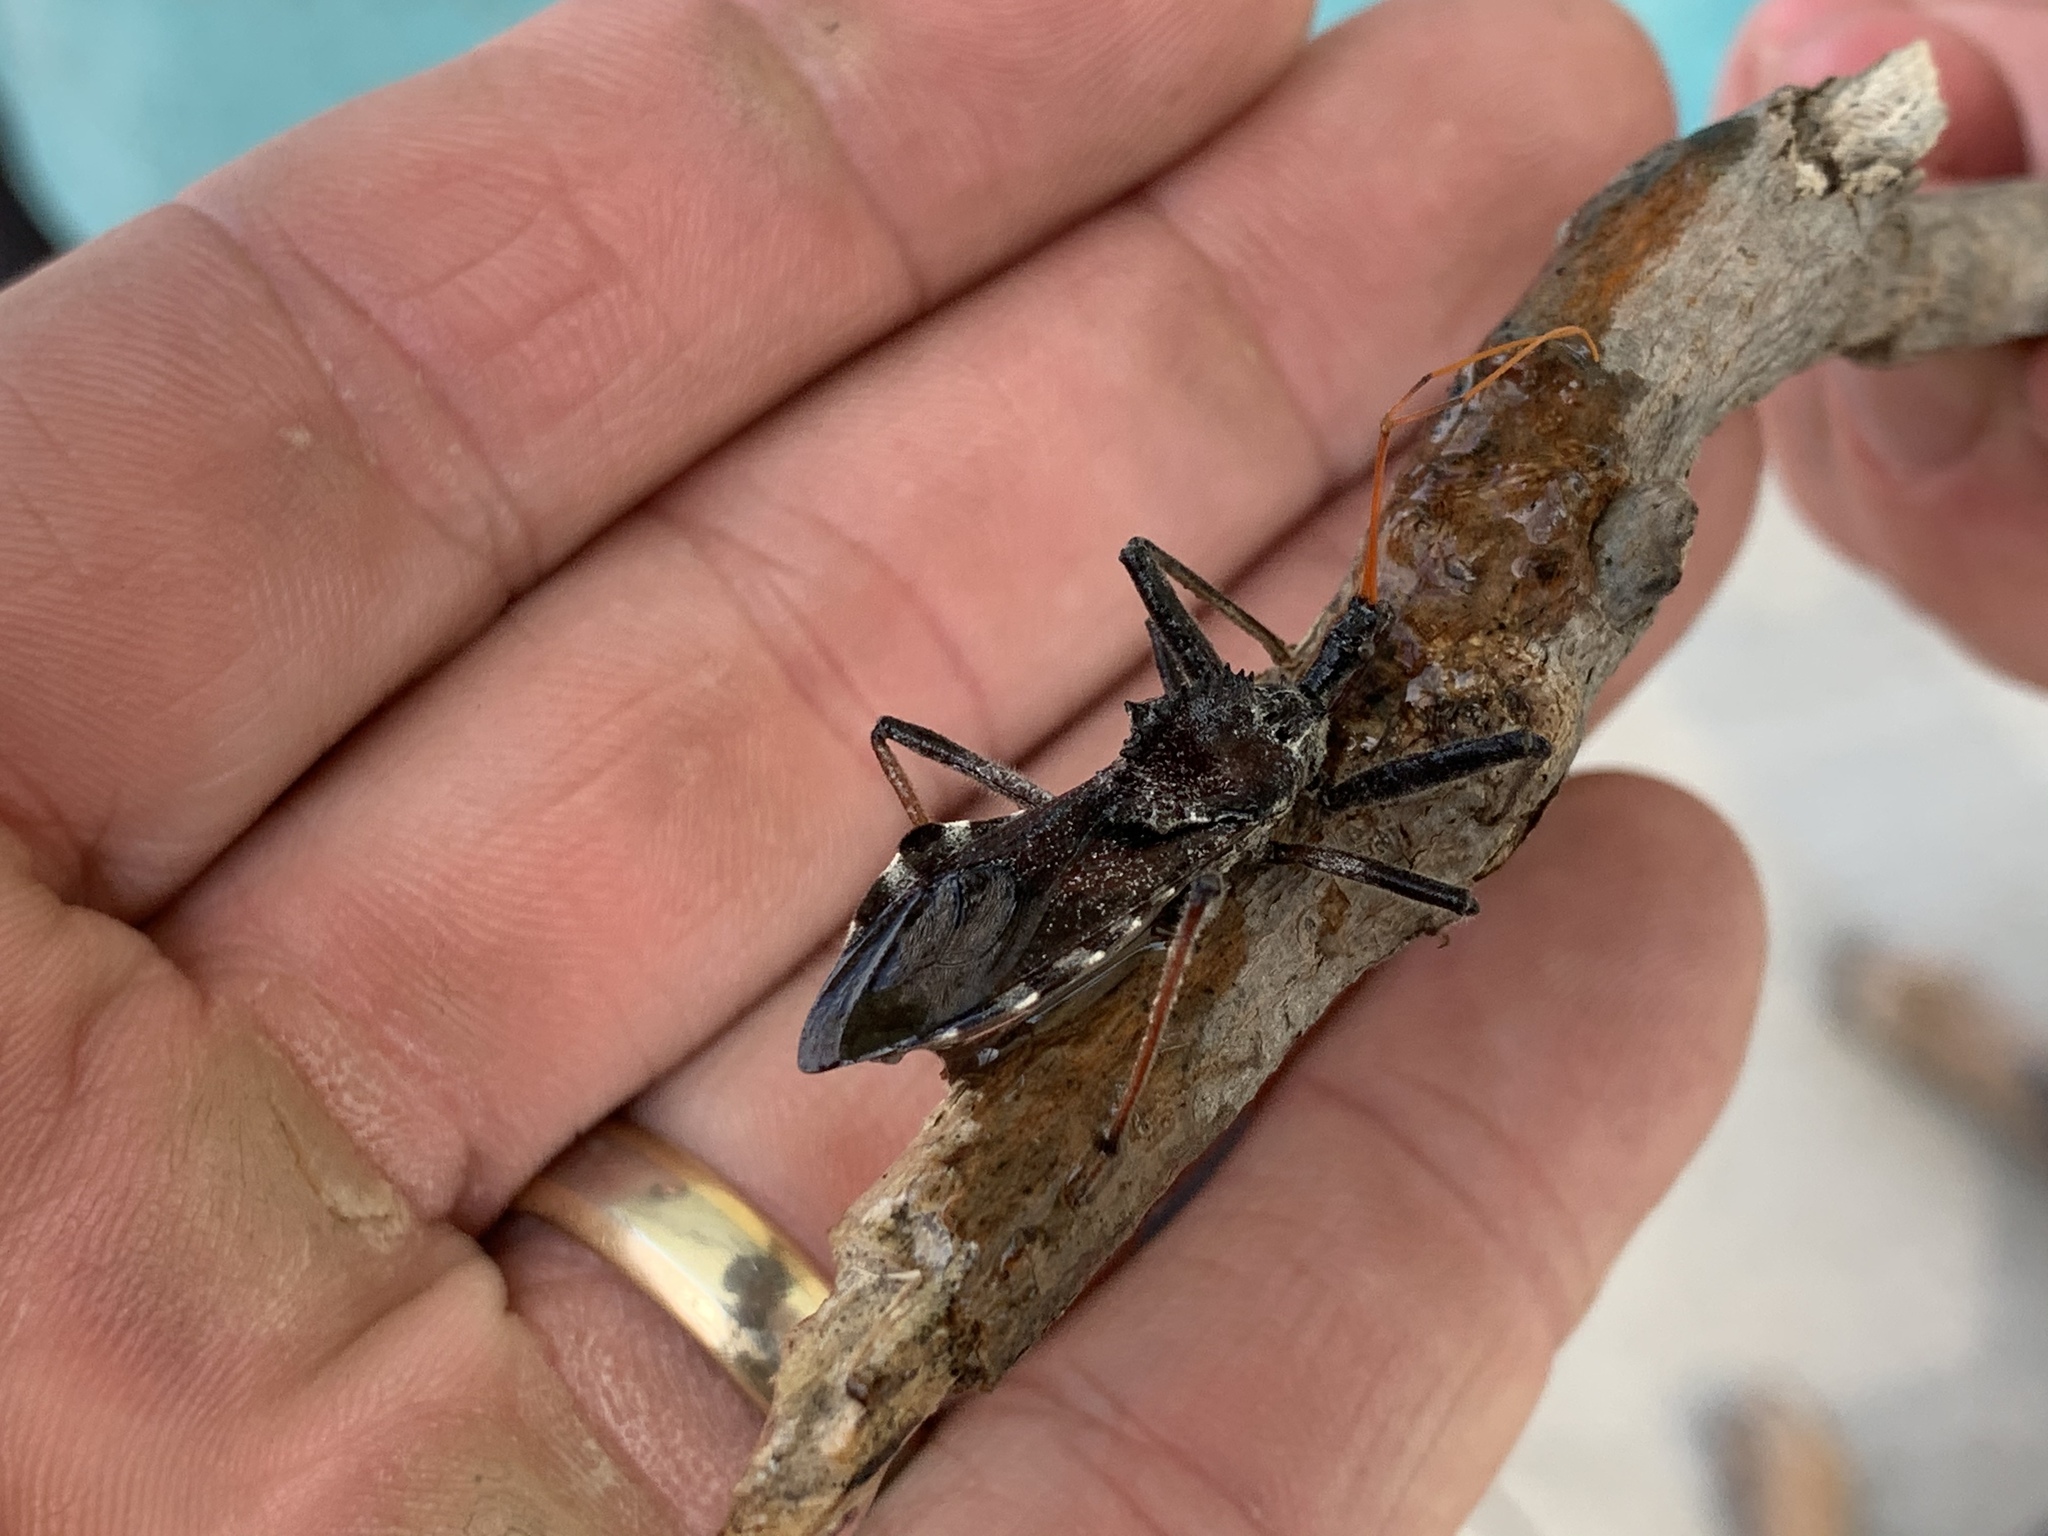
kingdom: Animalia
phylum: Arthropoda
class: Insecta
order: Hemiptera
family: Reduviidae
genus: Arilus
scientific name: Arilus cristatus
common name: North american wheel bug
